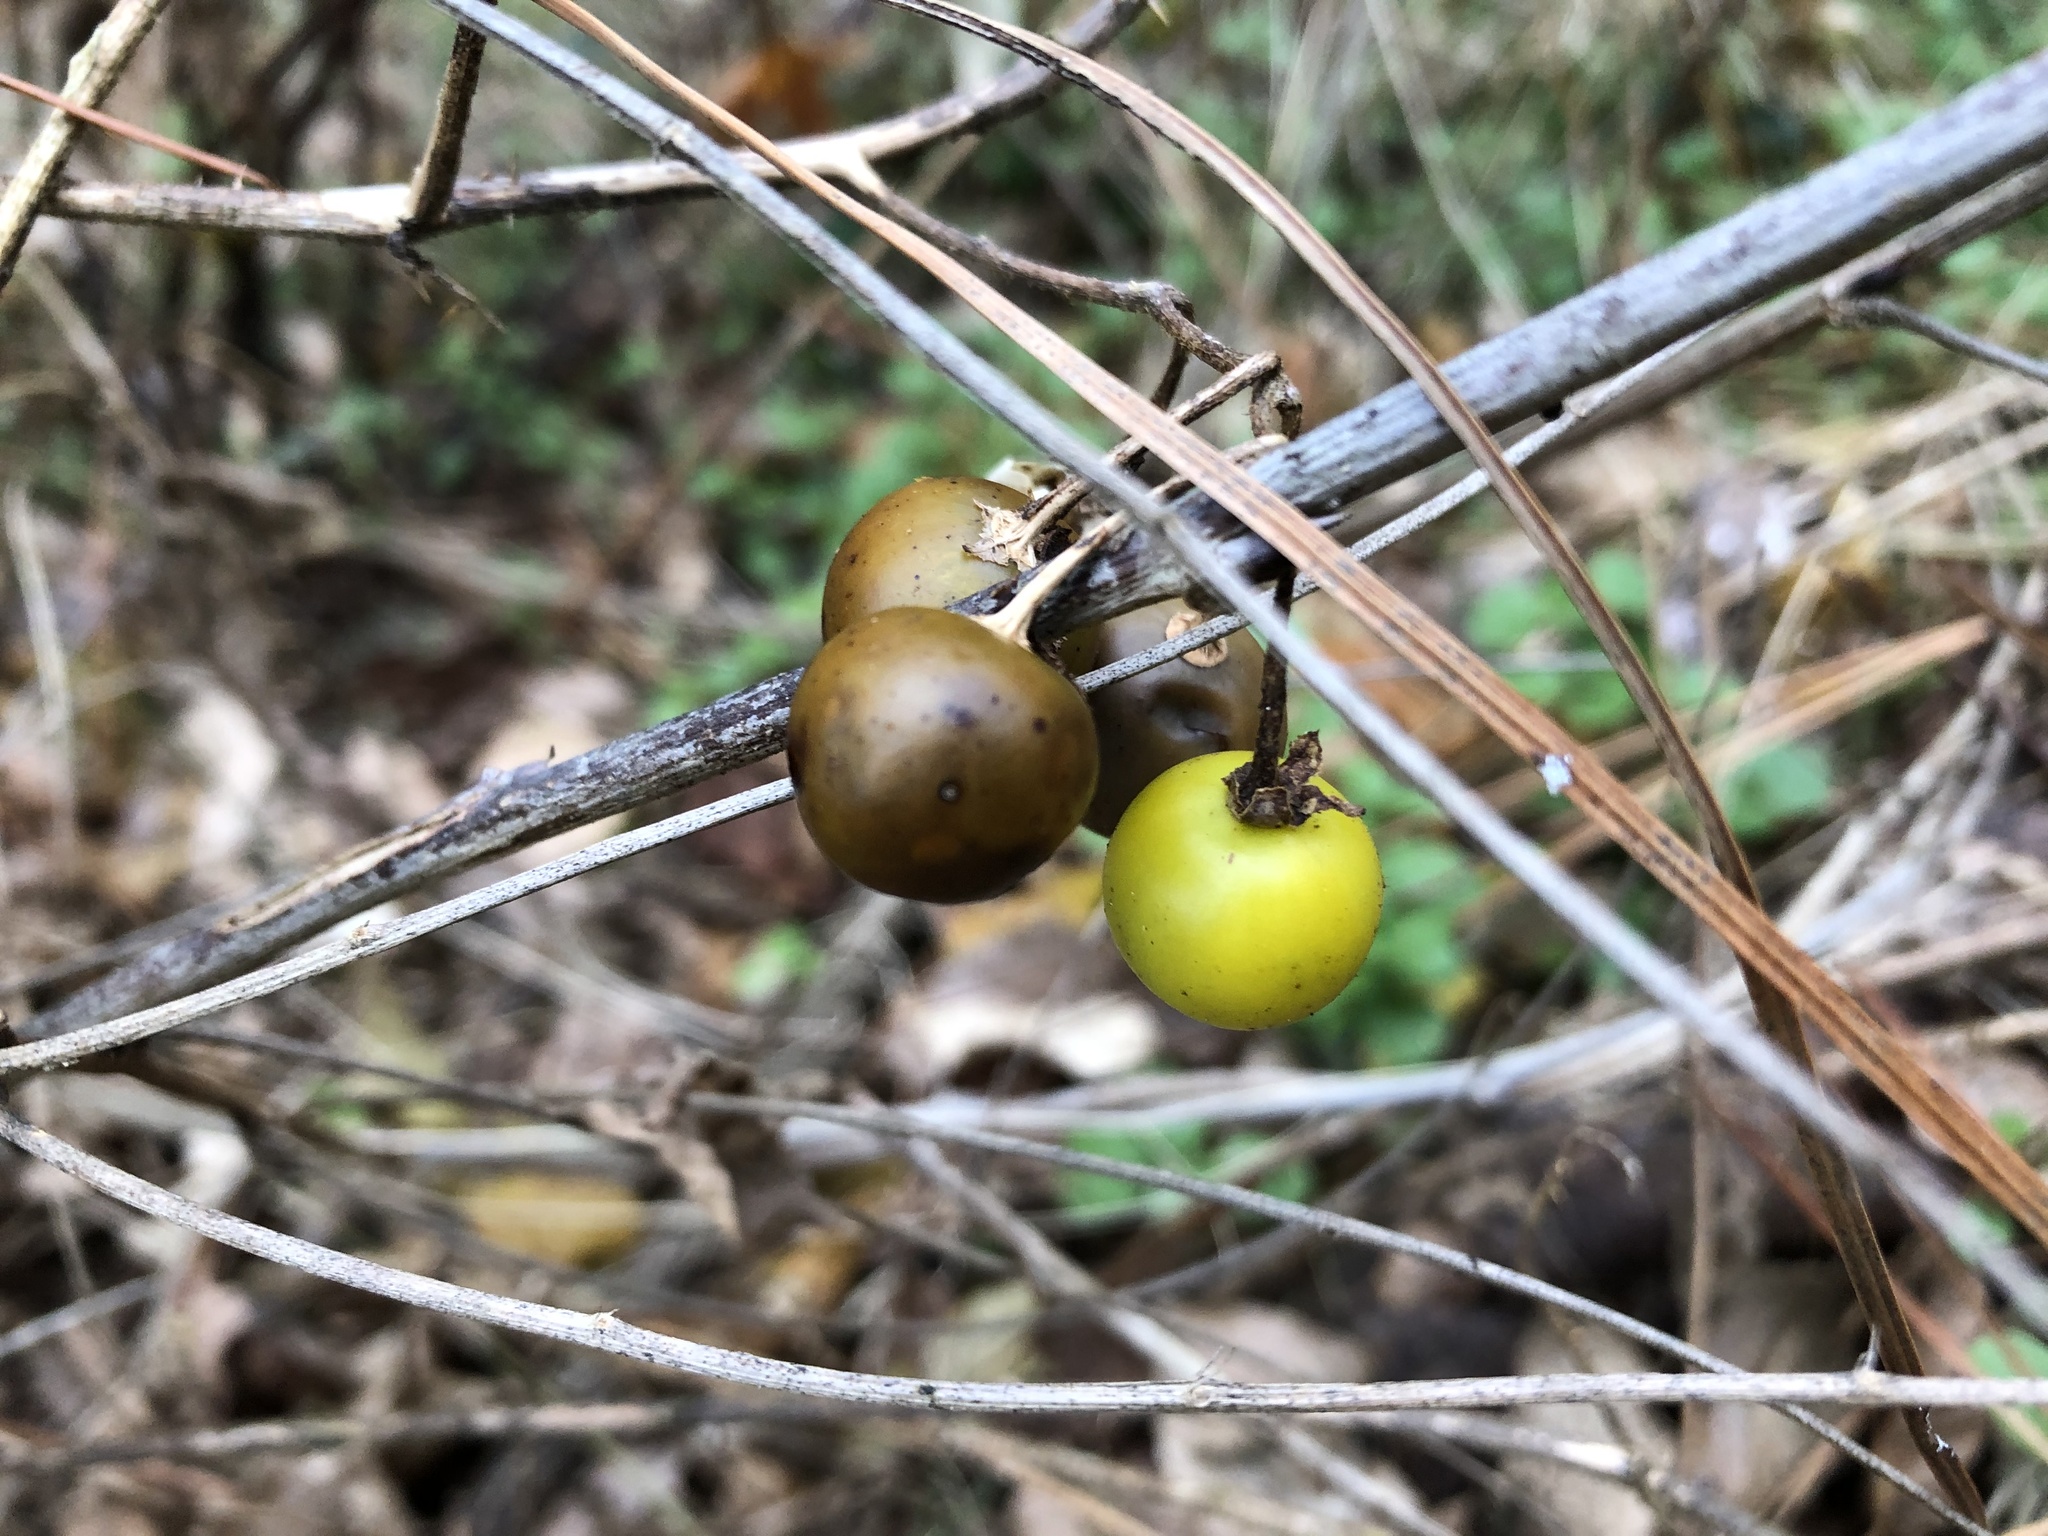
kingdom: Plantae
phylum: Tracheophyta
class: Magnoliopsida
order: Solanales
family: Solanaceae
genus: Solanum
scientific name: Solanum carolinense
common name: Horse-nettle
